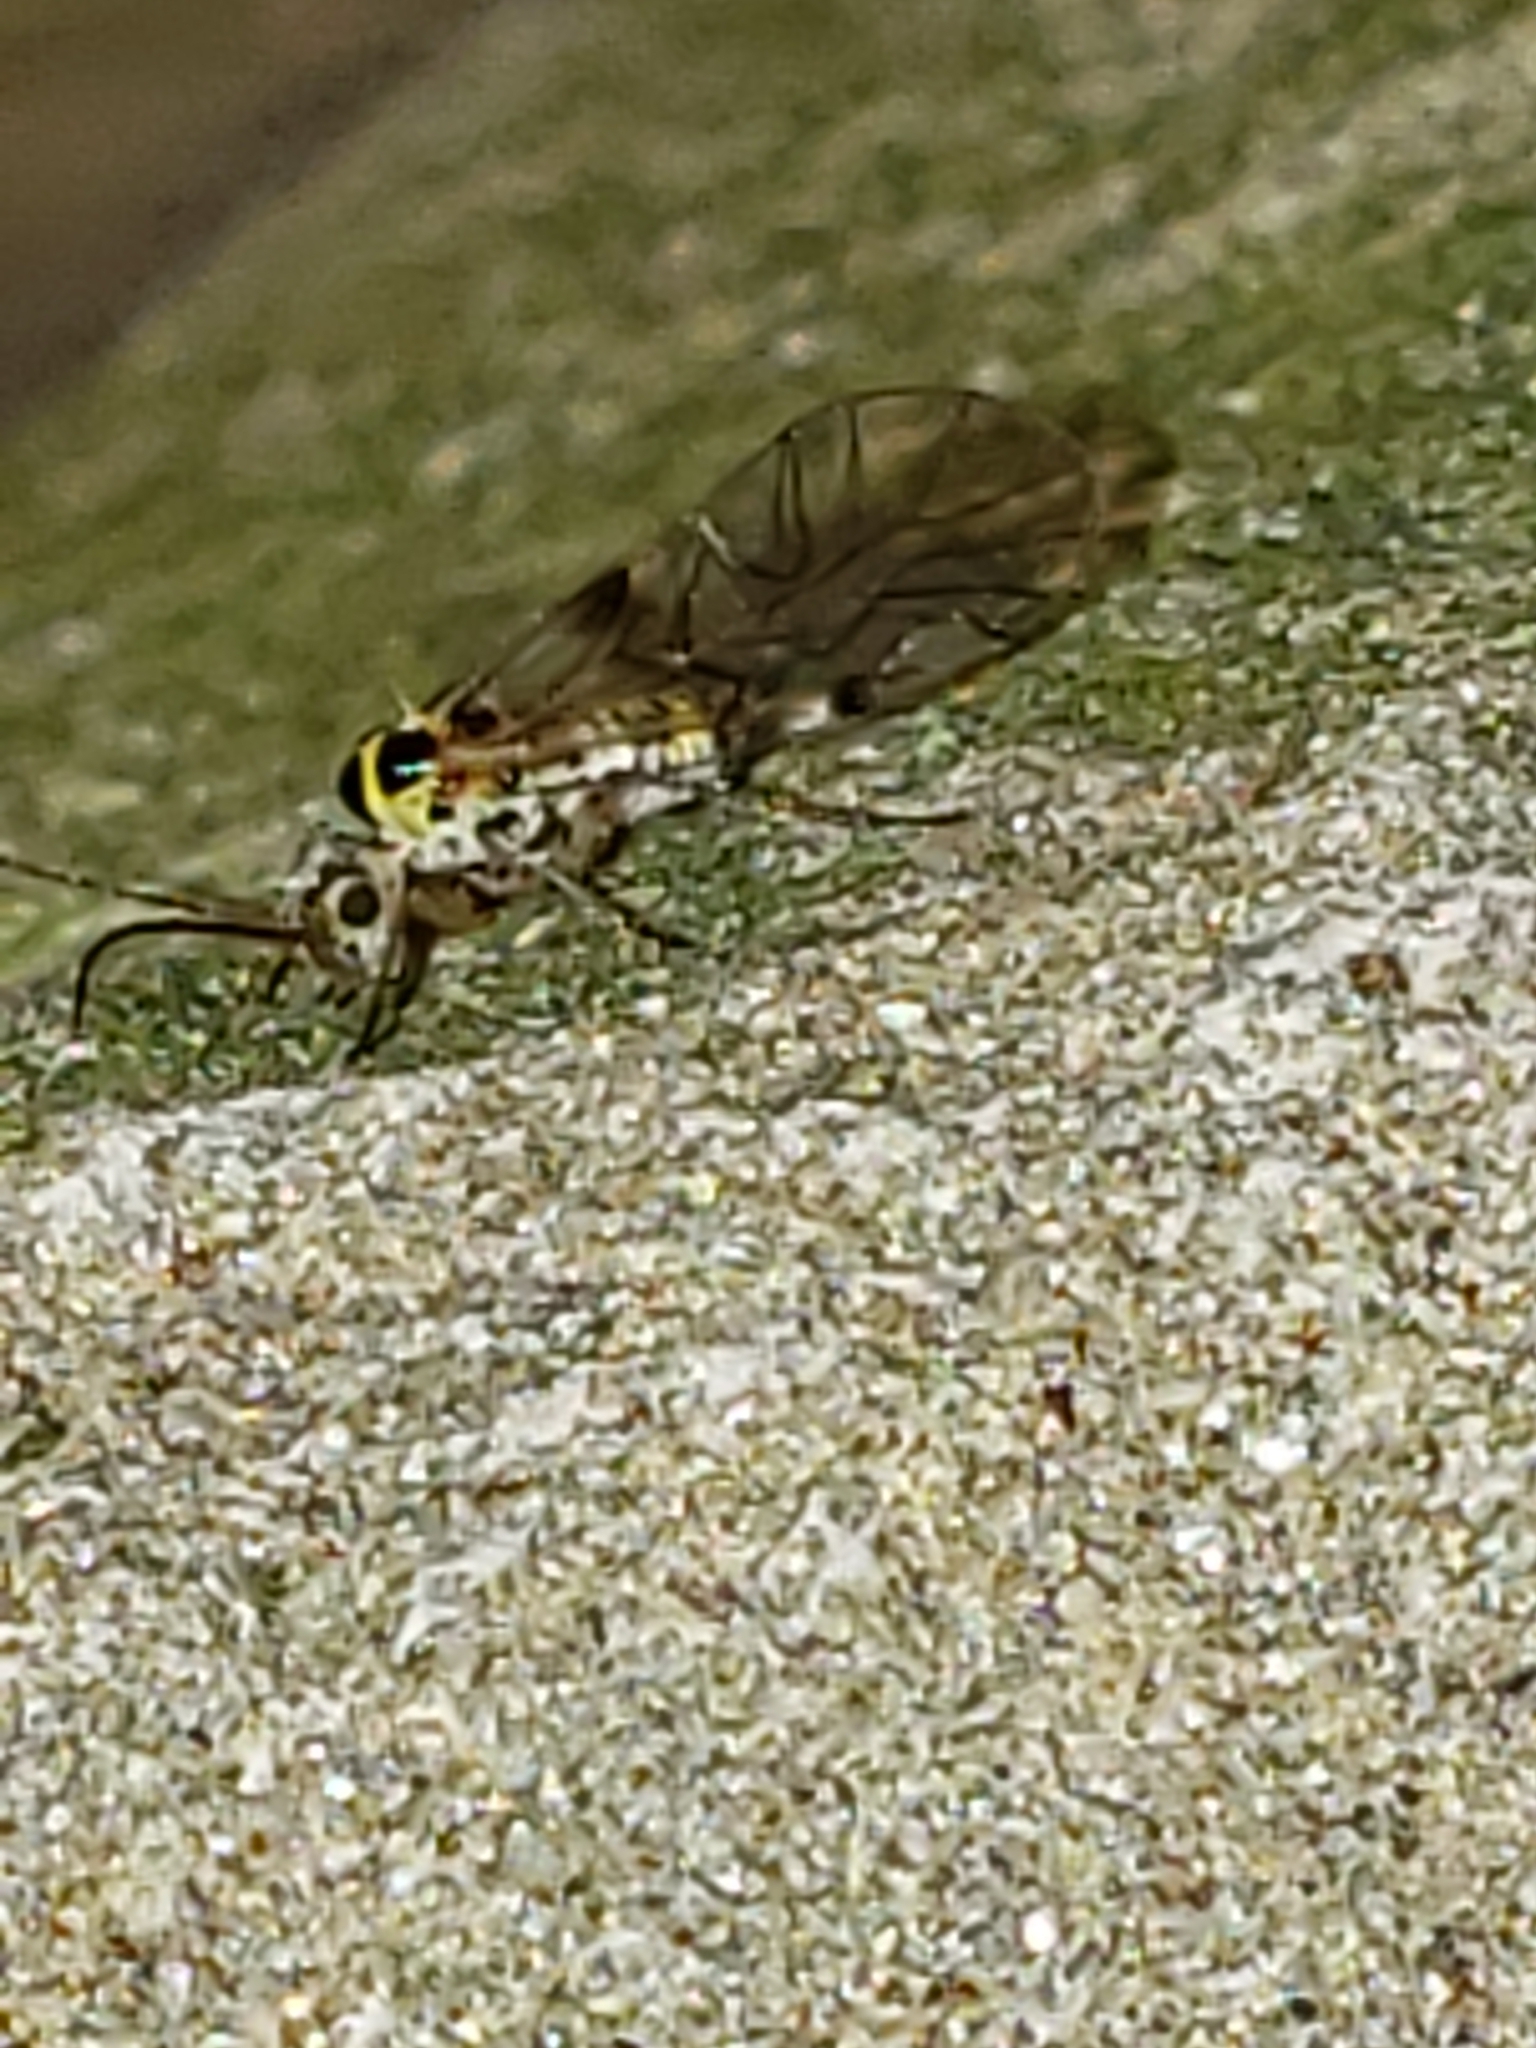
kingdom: Animalia
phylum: Arthropoda
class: Insecta
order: Psocodea
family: Dasydemellidae
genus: Teliapsocus
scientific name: Teliapsocus conterminus
